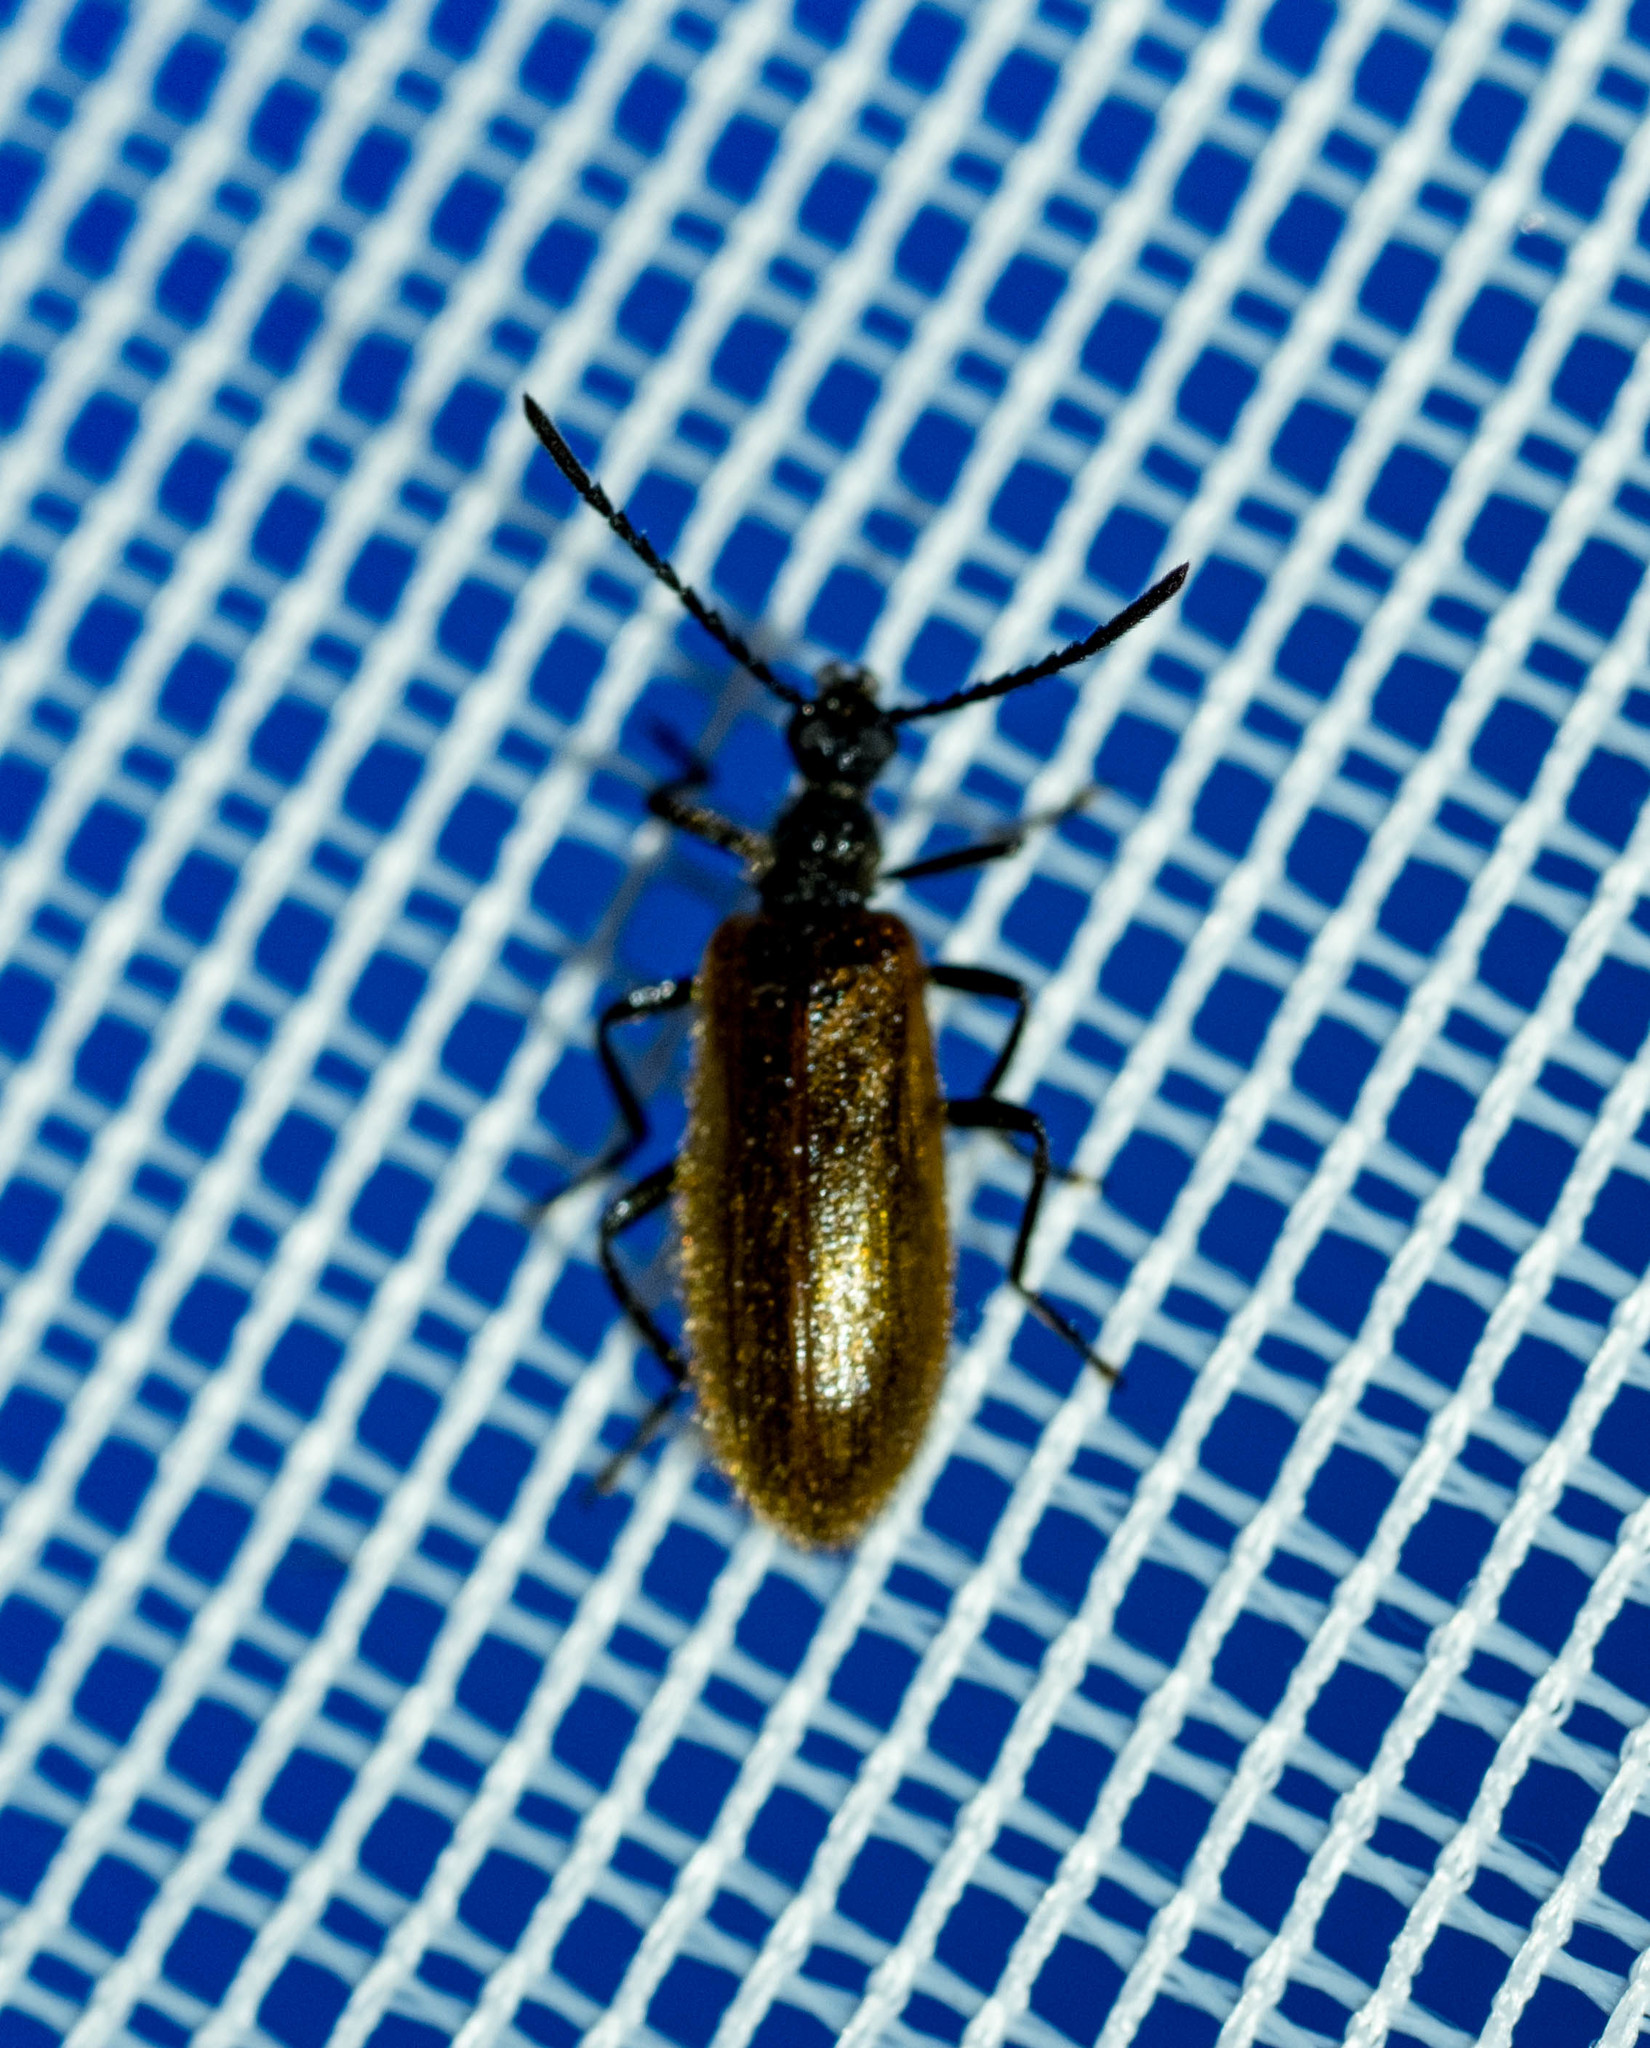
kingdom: Animalia
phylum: Arthropoda
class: Insecta
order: Coleoptera
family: Tenebrionidae
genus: Lagria
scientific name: Lagria hirta
